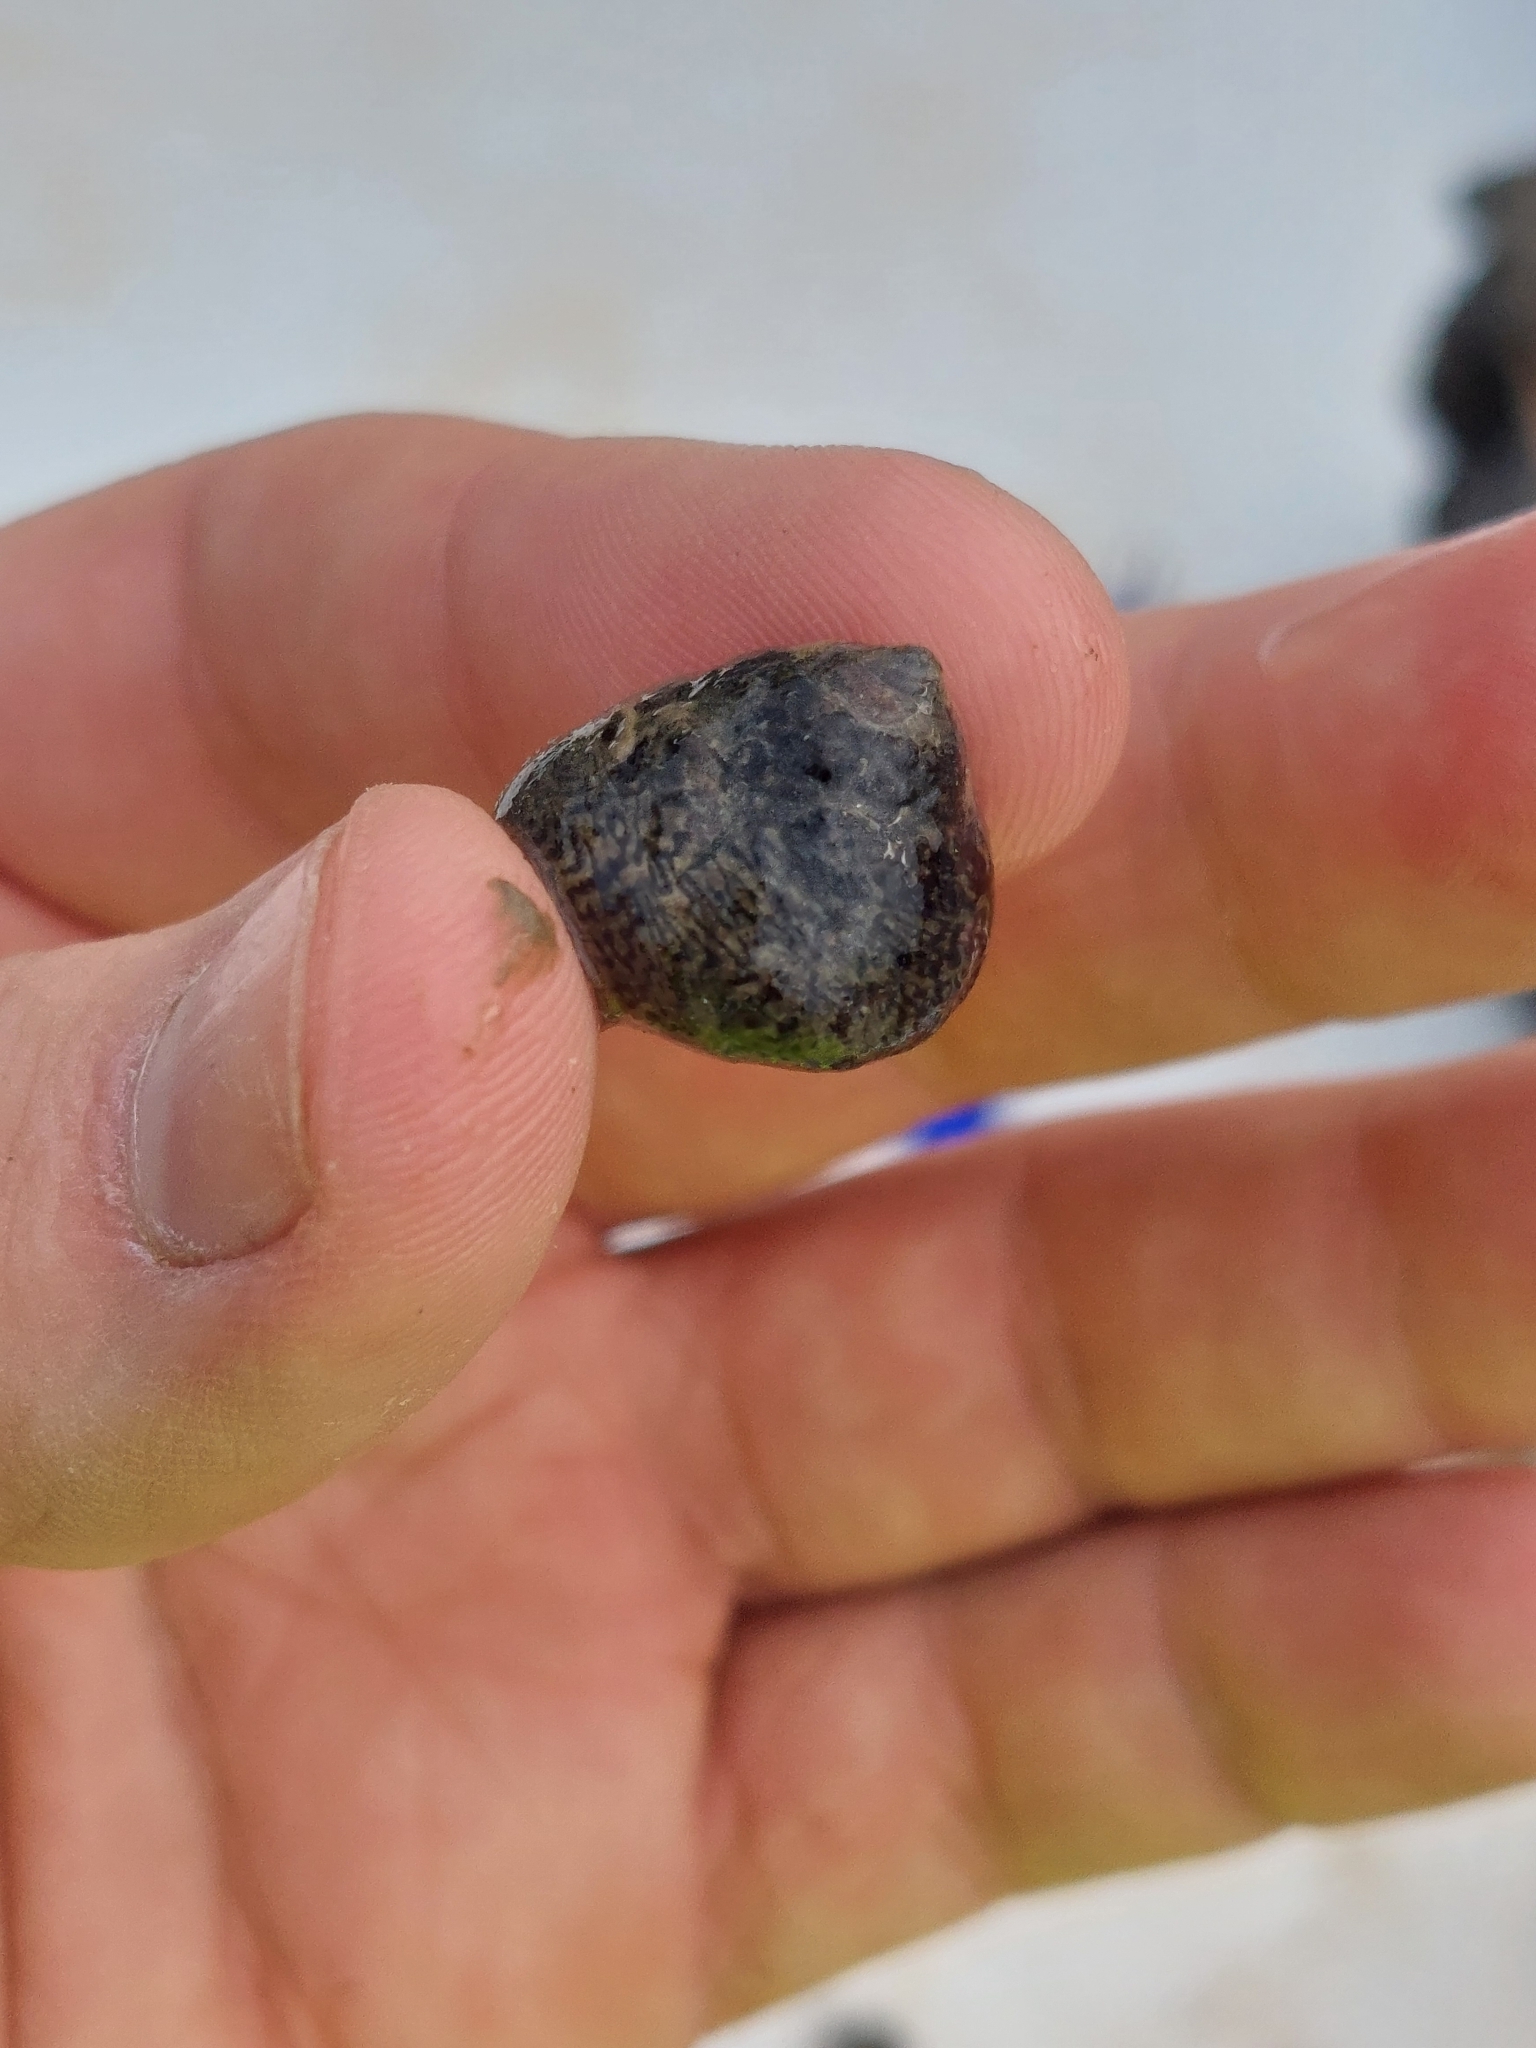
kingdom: Animalia
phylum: Mollusca
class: Gastropoda
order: Trochida
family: Trochidae
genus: Phorcus
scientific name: Phorcus lineatus
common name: Toothed top shell
